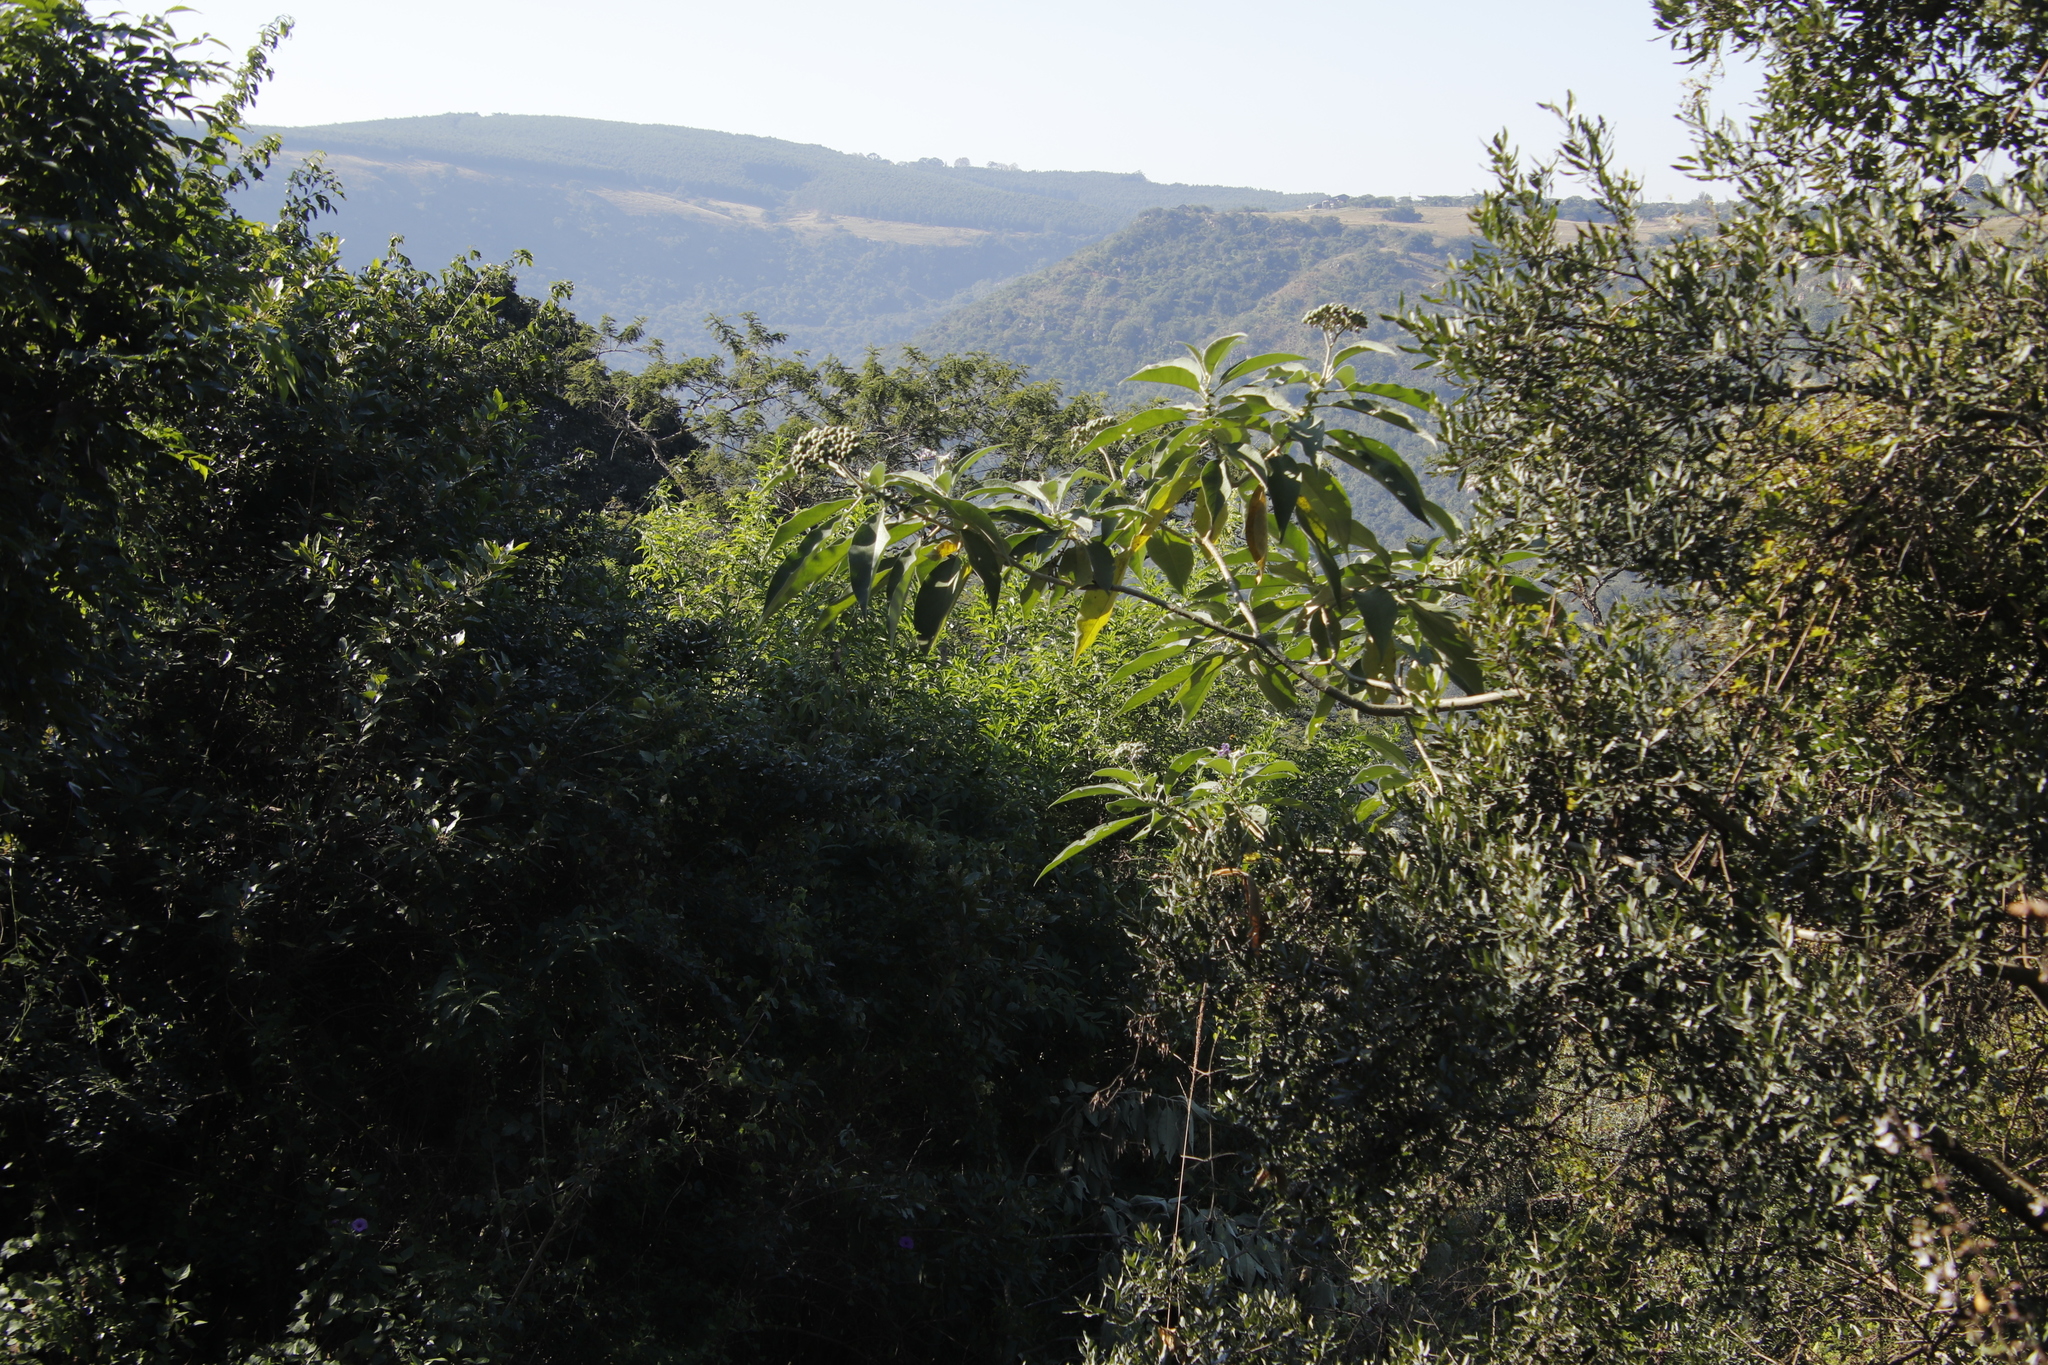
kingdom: Plantae
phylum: Tracheophyta
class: Magnoliopsida
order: Solanales
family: Solanaceae
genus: Solanum
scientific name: Solanum mauritianum
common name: Earleaf nightshade
